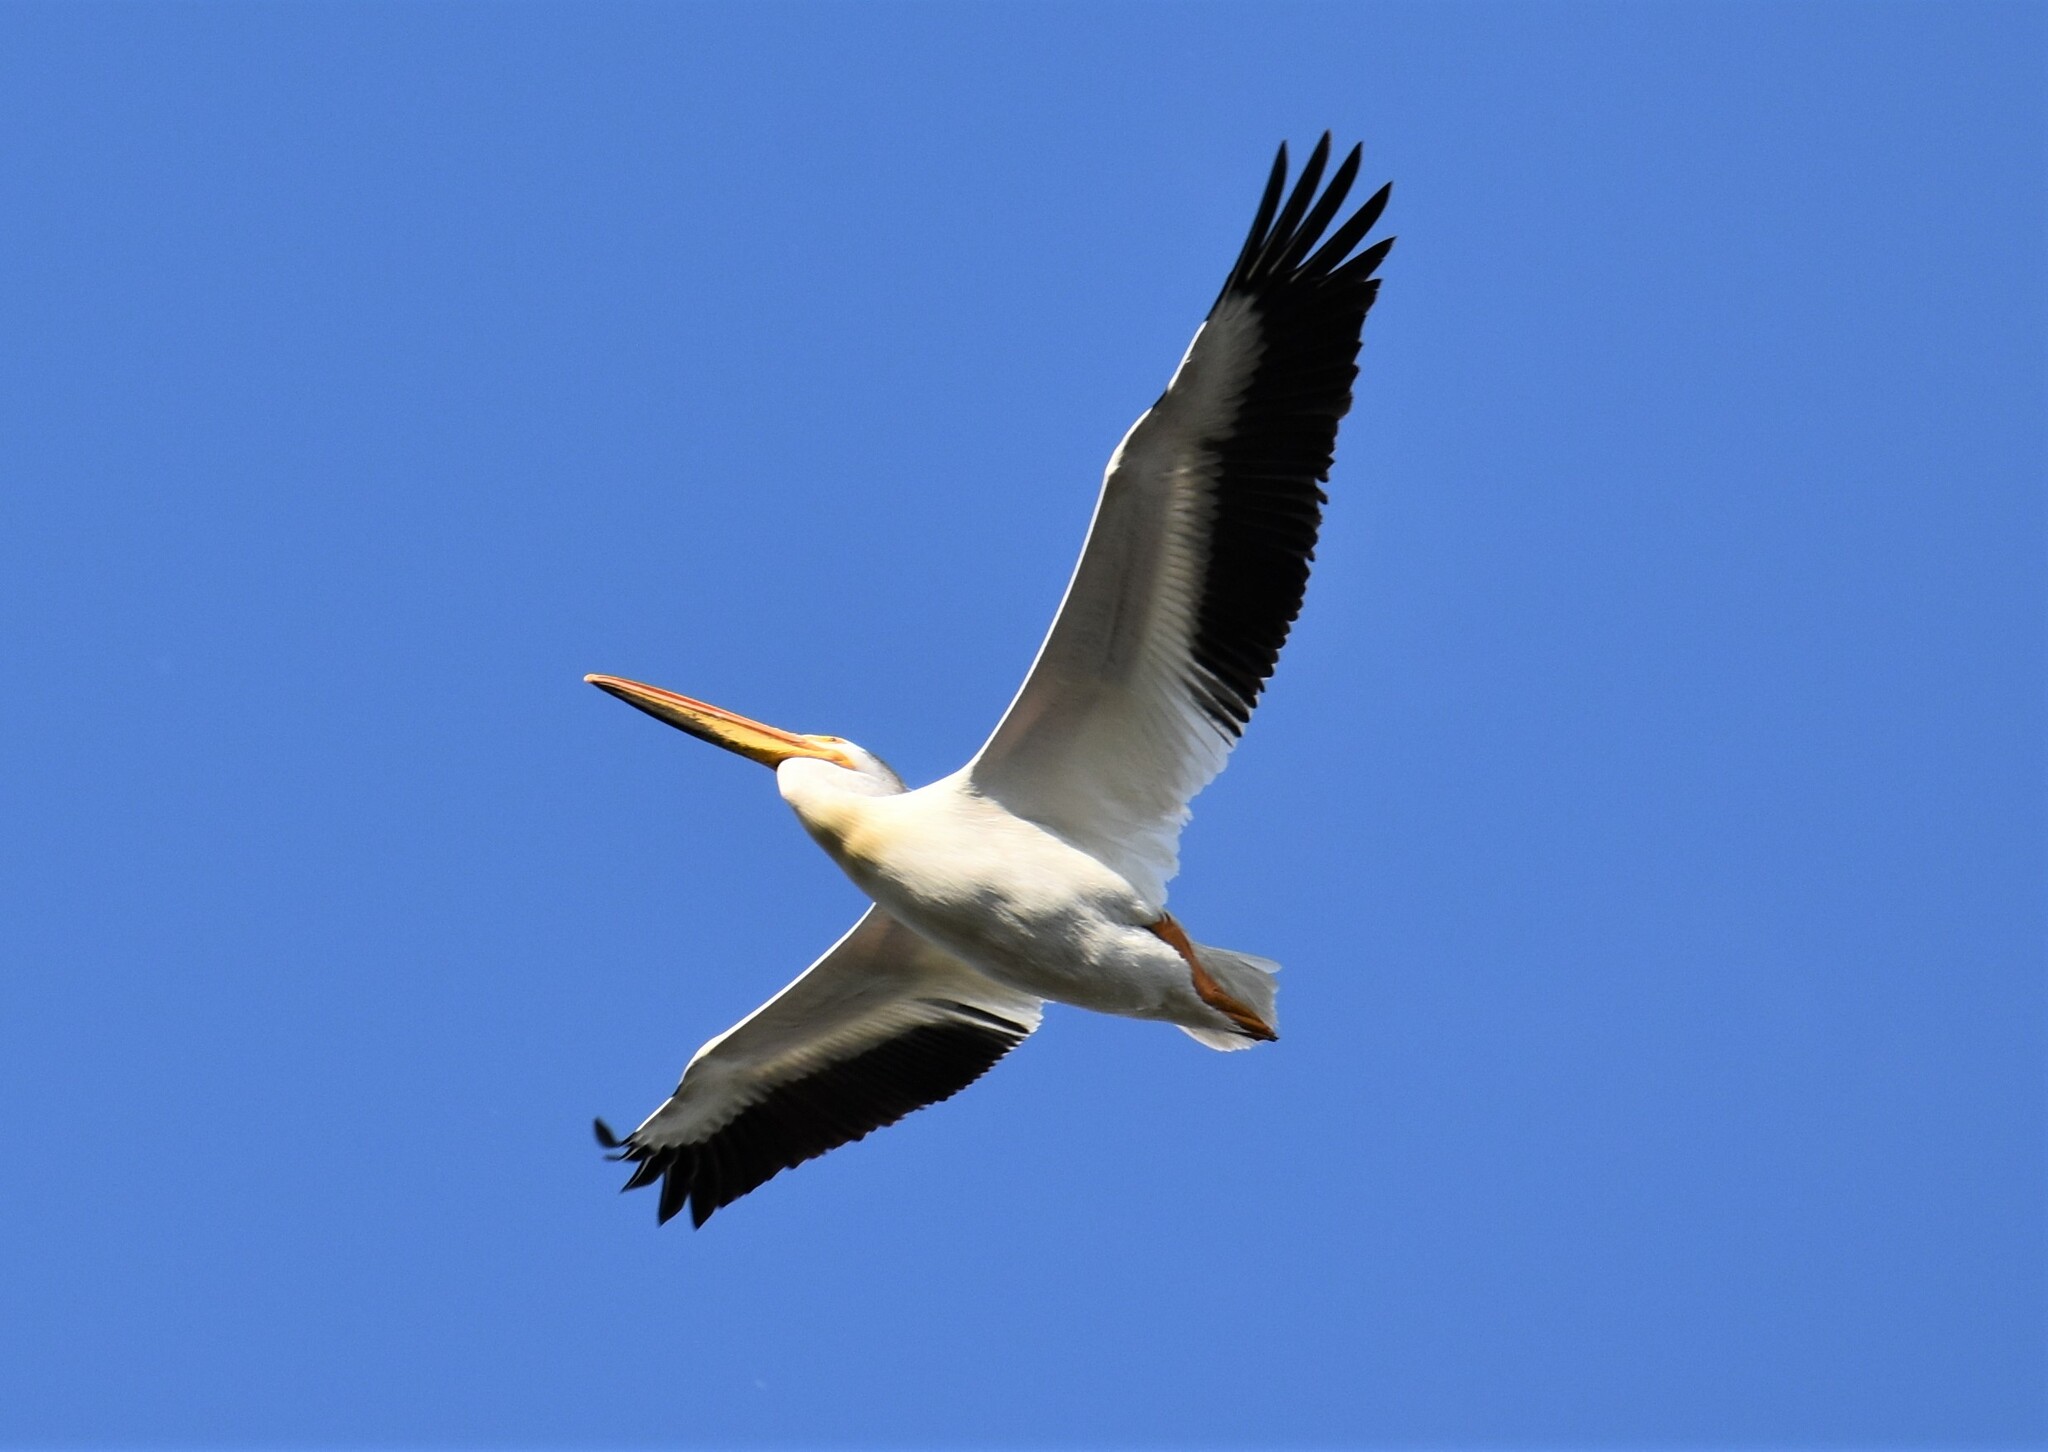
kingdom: Animalia
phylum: Chordata
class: Aves
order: Pelecaniformes
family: Pelecanidae
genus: Pelecanus
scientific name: Pelecanus erythrorhynchos
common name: American white pelican
